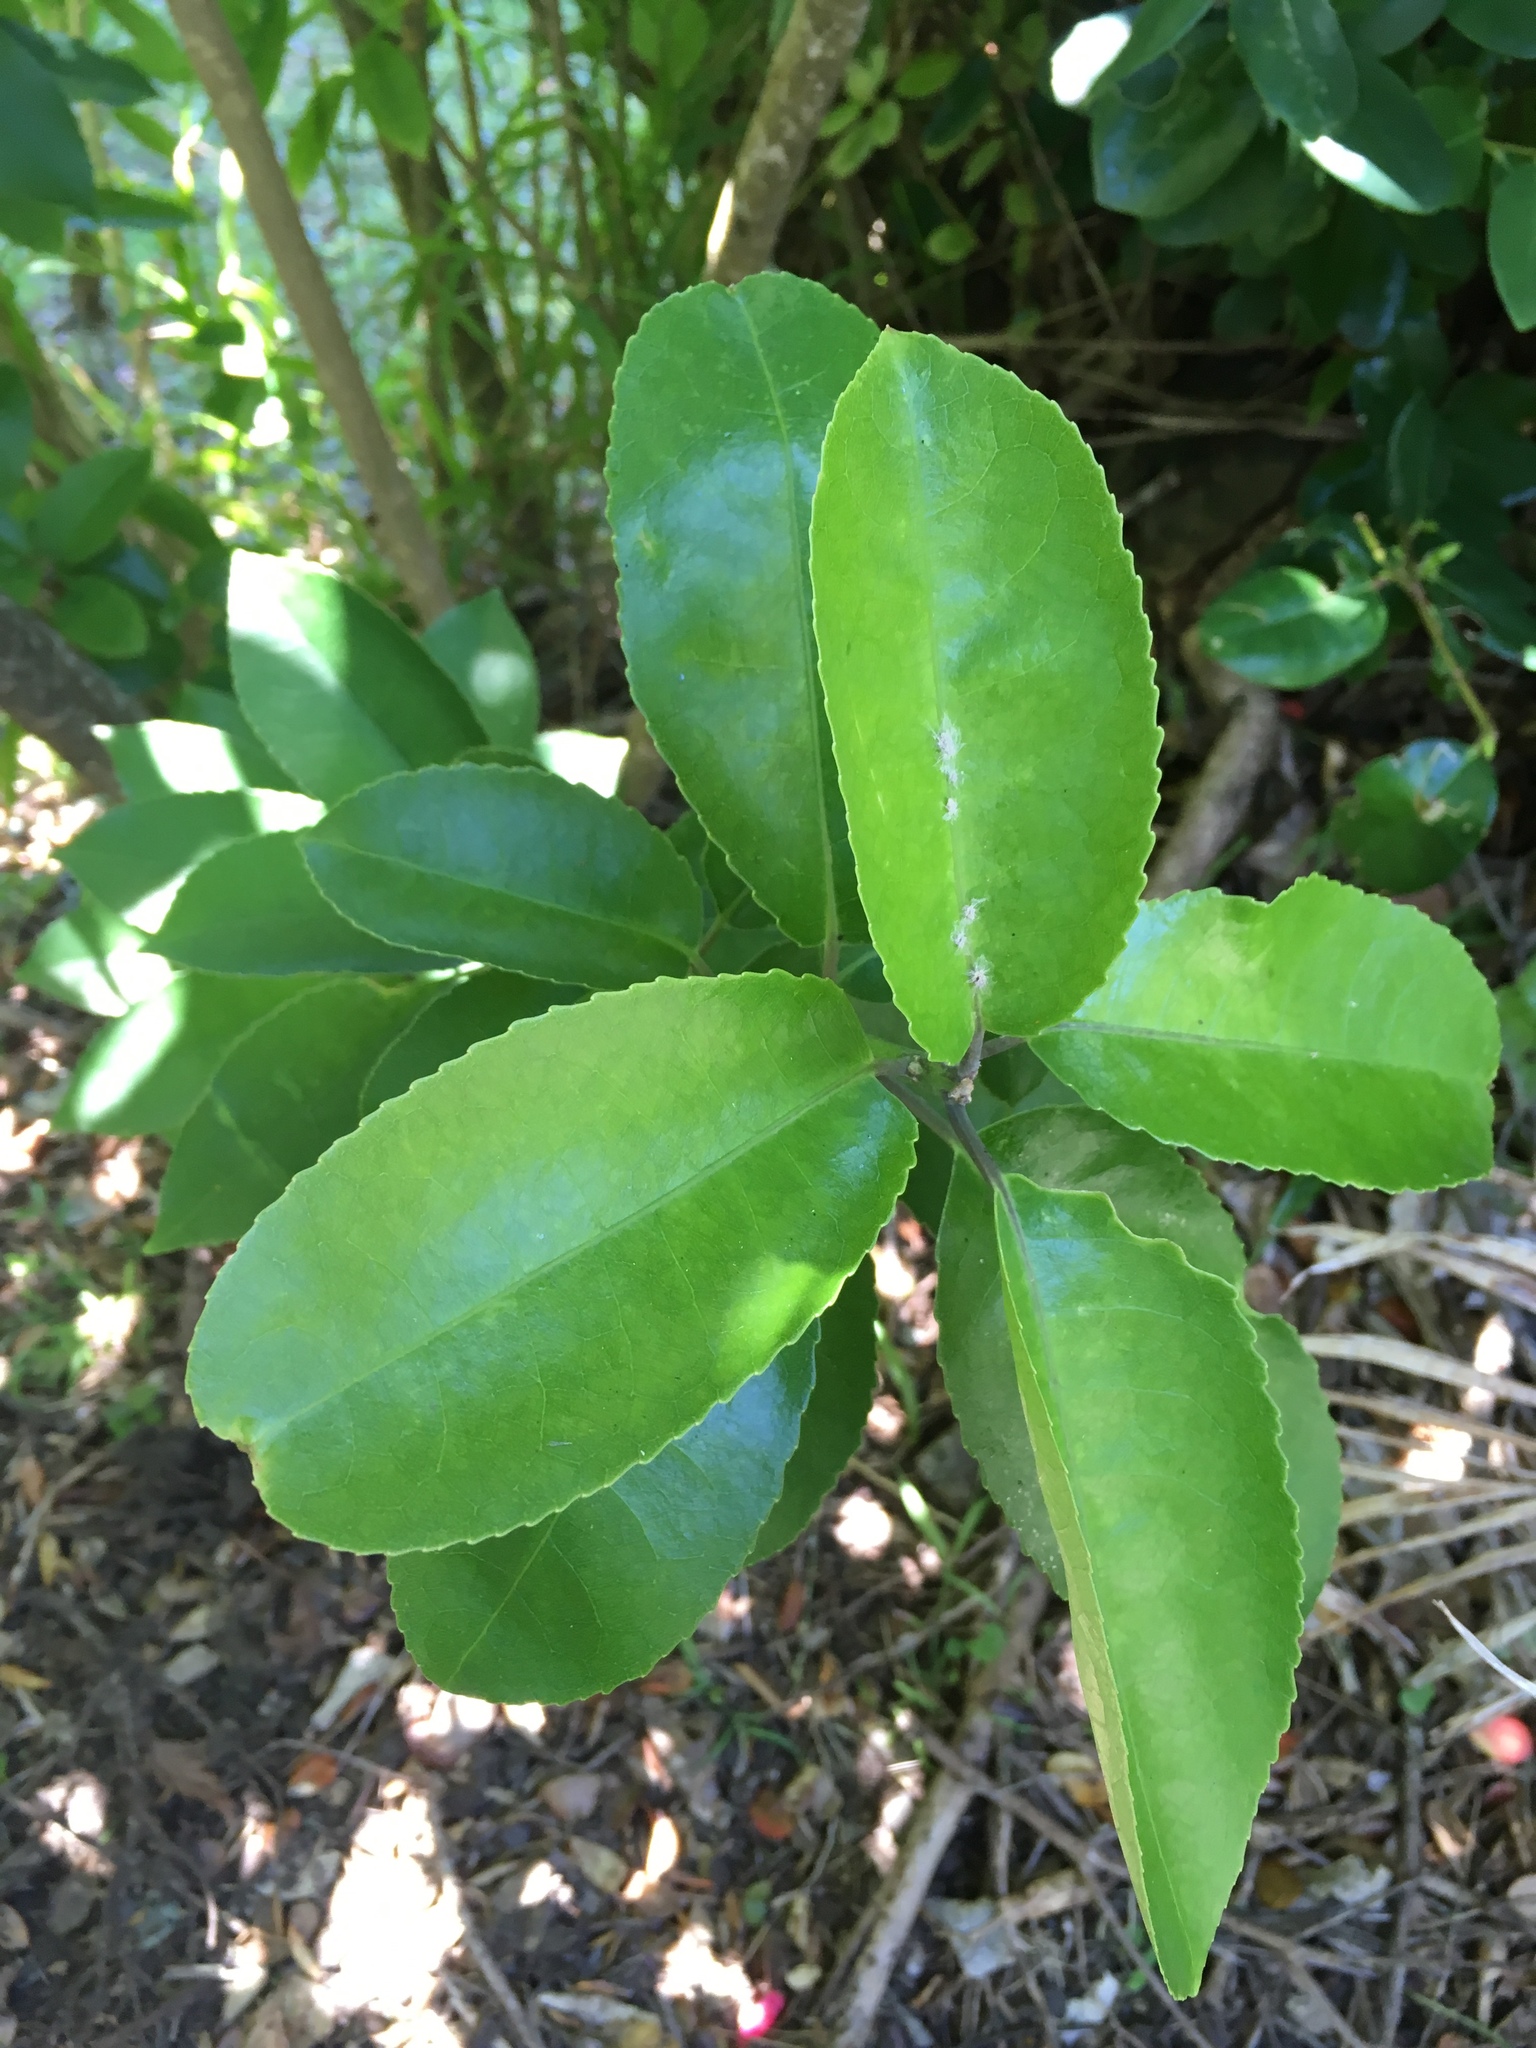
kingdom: Plantae
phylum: Tracheophyta
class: Magnoliopsida
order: Malpighiales
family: Violaceae
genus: Melicytus
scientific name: Melicytus ramiflorus
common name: Mahoe
